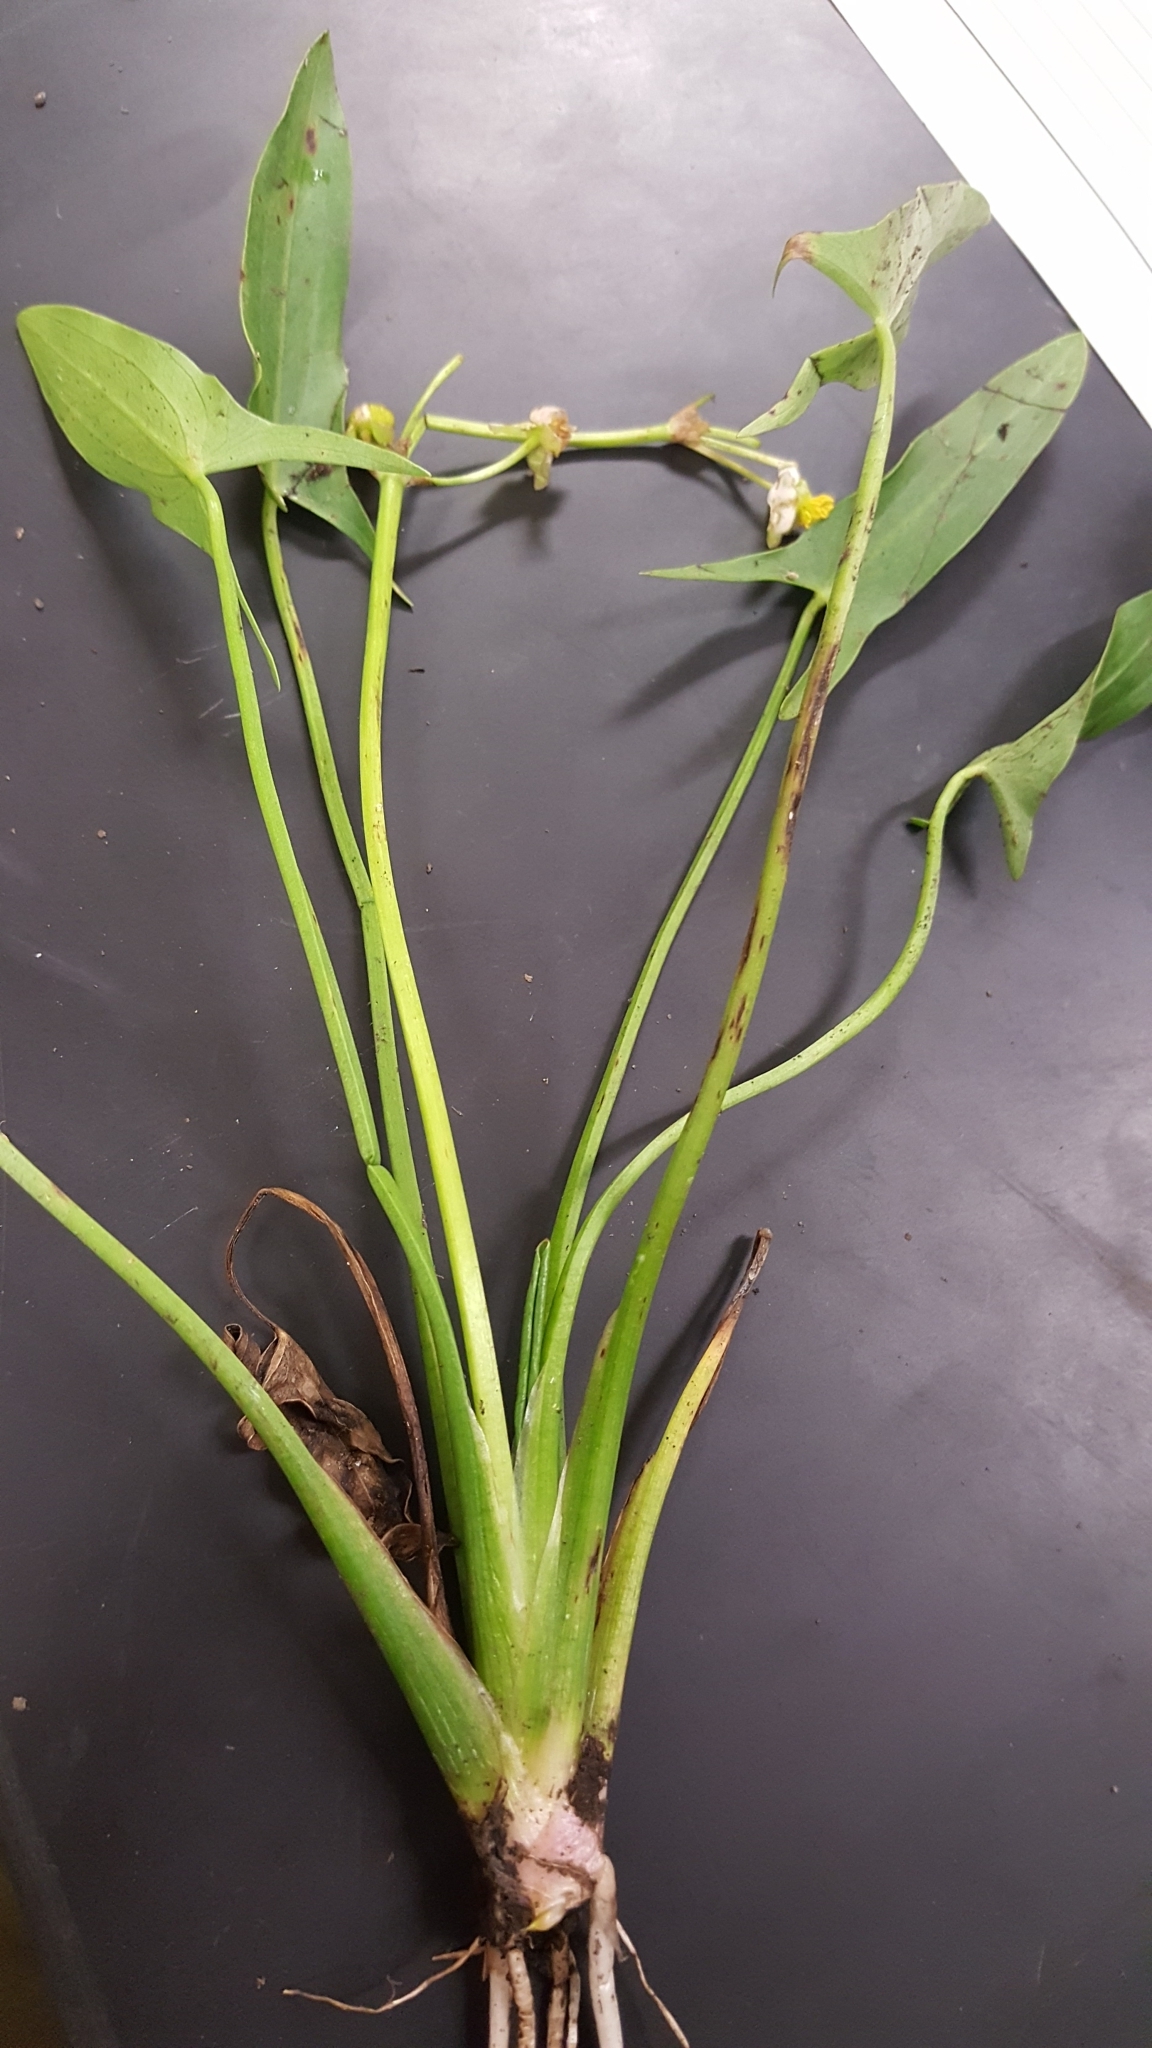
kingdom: Plantae
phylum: Tracheophyta
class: Liliopsida
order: Alismatales
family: Alismataceae
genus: Sagittaria
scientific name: Sagittaria latifolia
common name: Duck-potato
